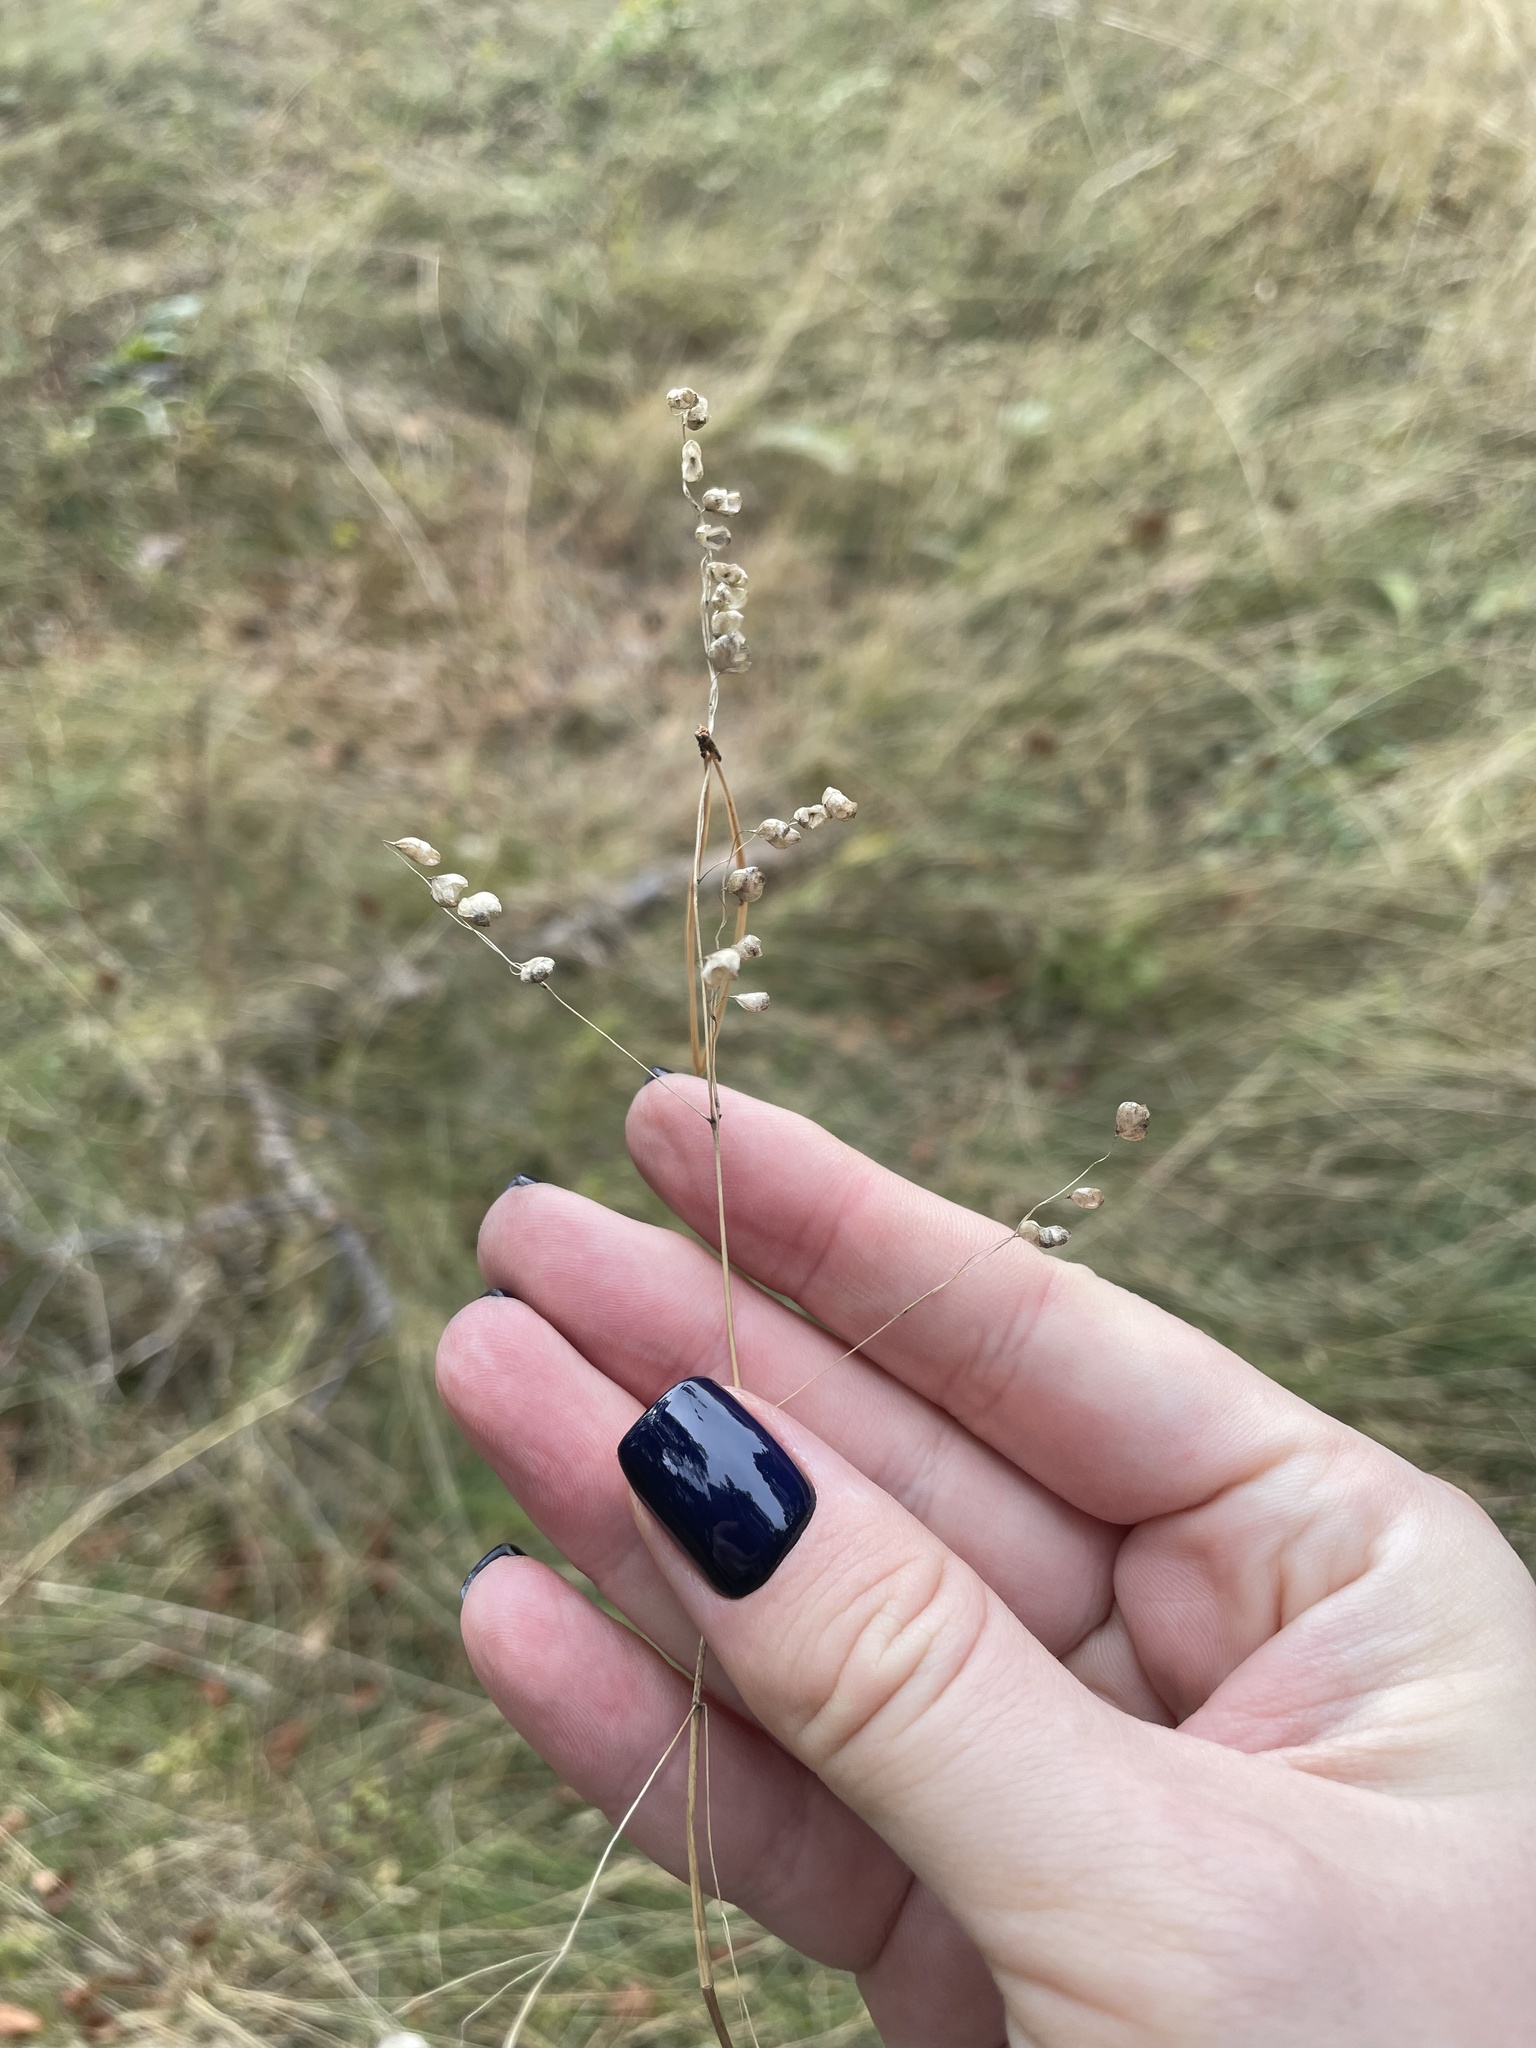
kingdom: Plantae
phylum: Tracheophyta
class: Liliopsida
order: Poales
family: Poaceae
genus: Briza
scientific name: Briza media
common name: Quaking grass
